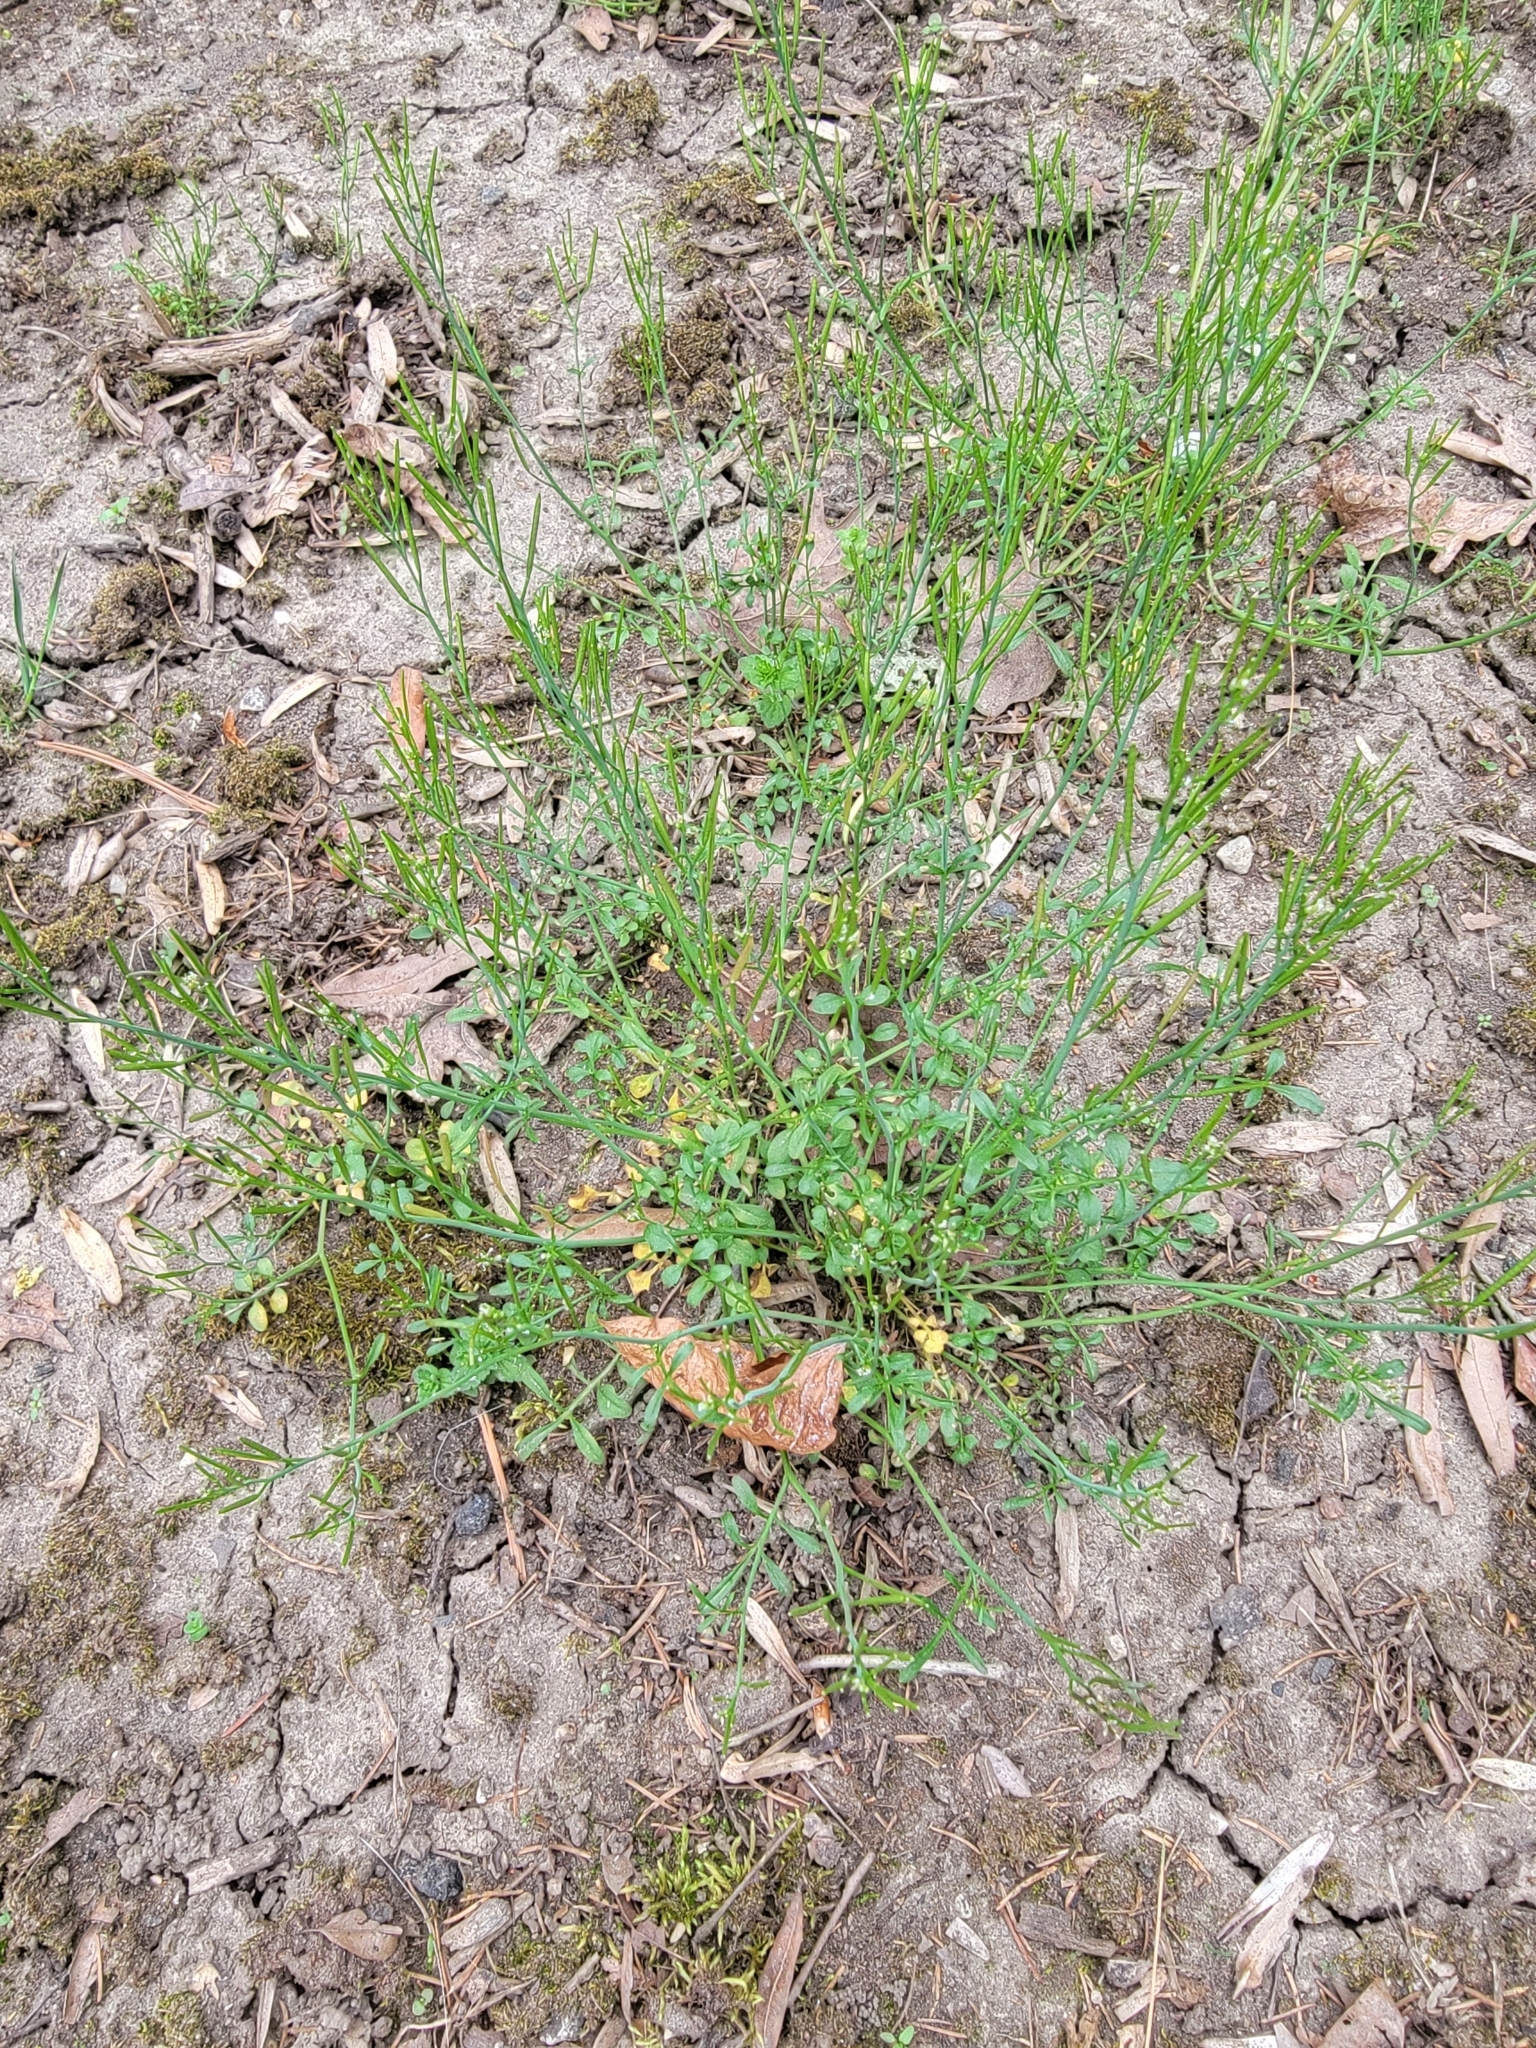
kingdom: Plantae
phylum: Tracheophyta
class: Magnoliopsida
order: Brassicales
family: Brassicaceae
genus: Cardamine
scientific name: Cardamine hirsuta
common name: Hairy bittercress
